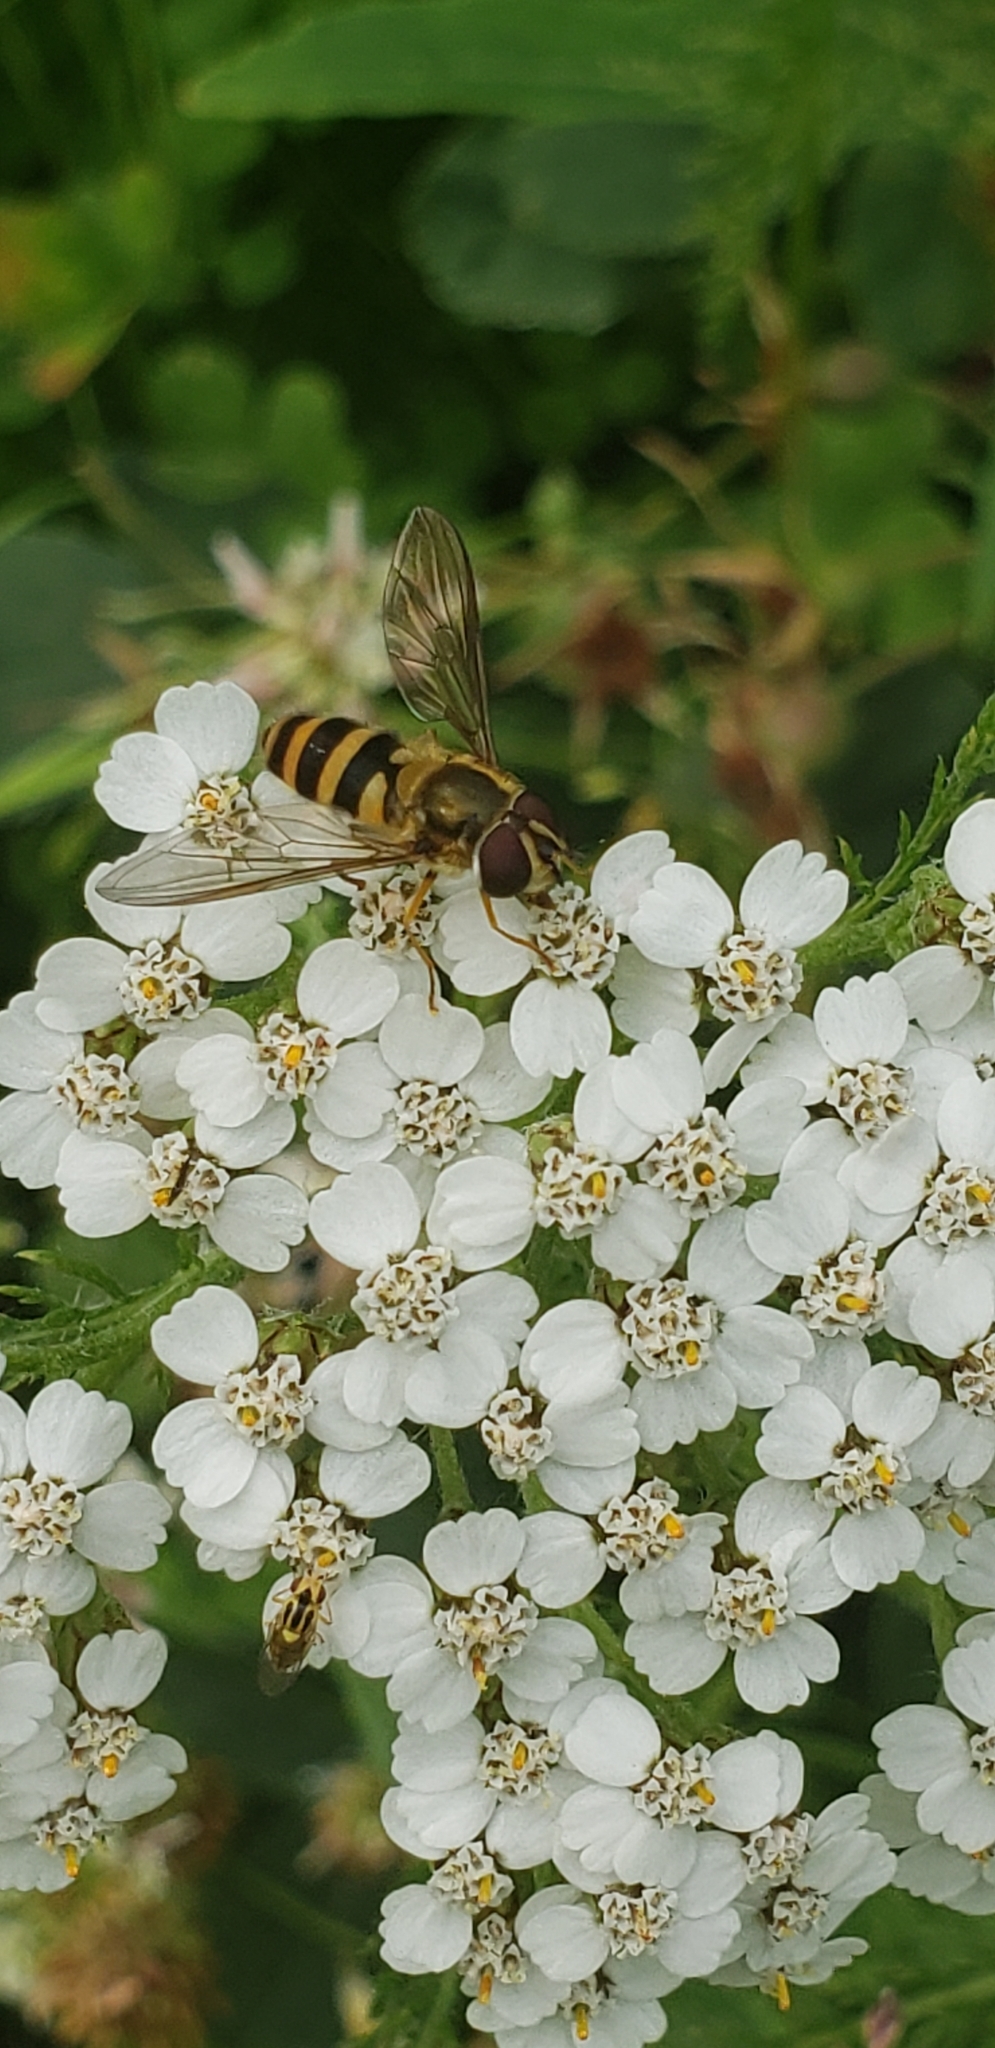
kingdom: Animalia
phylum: Arthropoda
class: Insecta
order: Diptera
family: Syrphidae
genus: Epistrophe
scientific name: Epistrophe grossulariae
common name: Black-horned smoothtail
